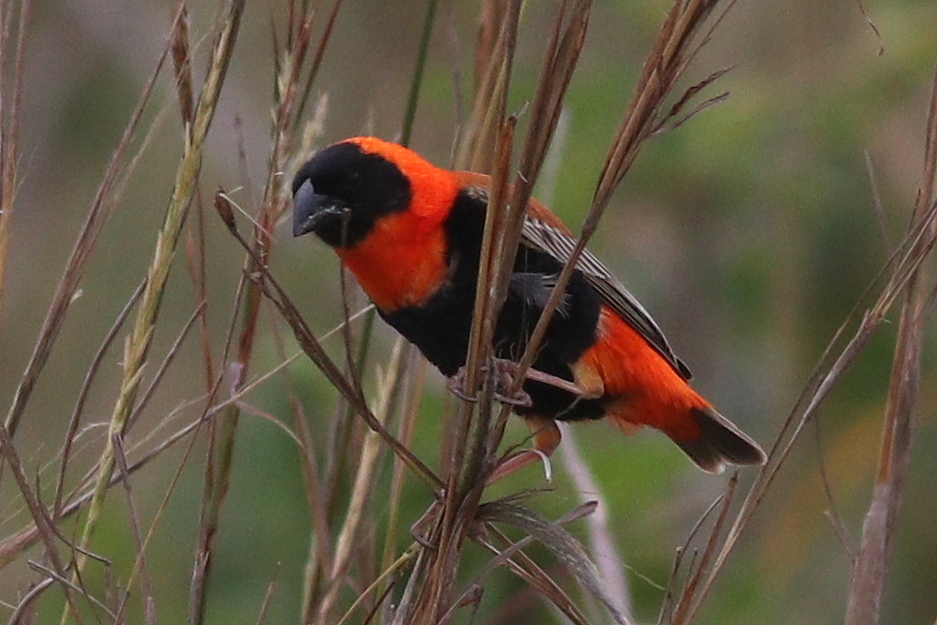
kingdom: Animalia
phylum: Chordata
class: Aves
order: Passeriformes
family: Ploceidae
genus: Euplectes
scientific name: Euplectes orix
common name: Southern red bishop
